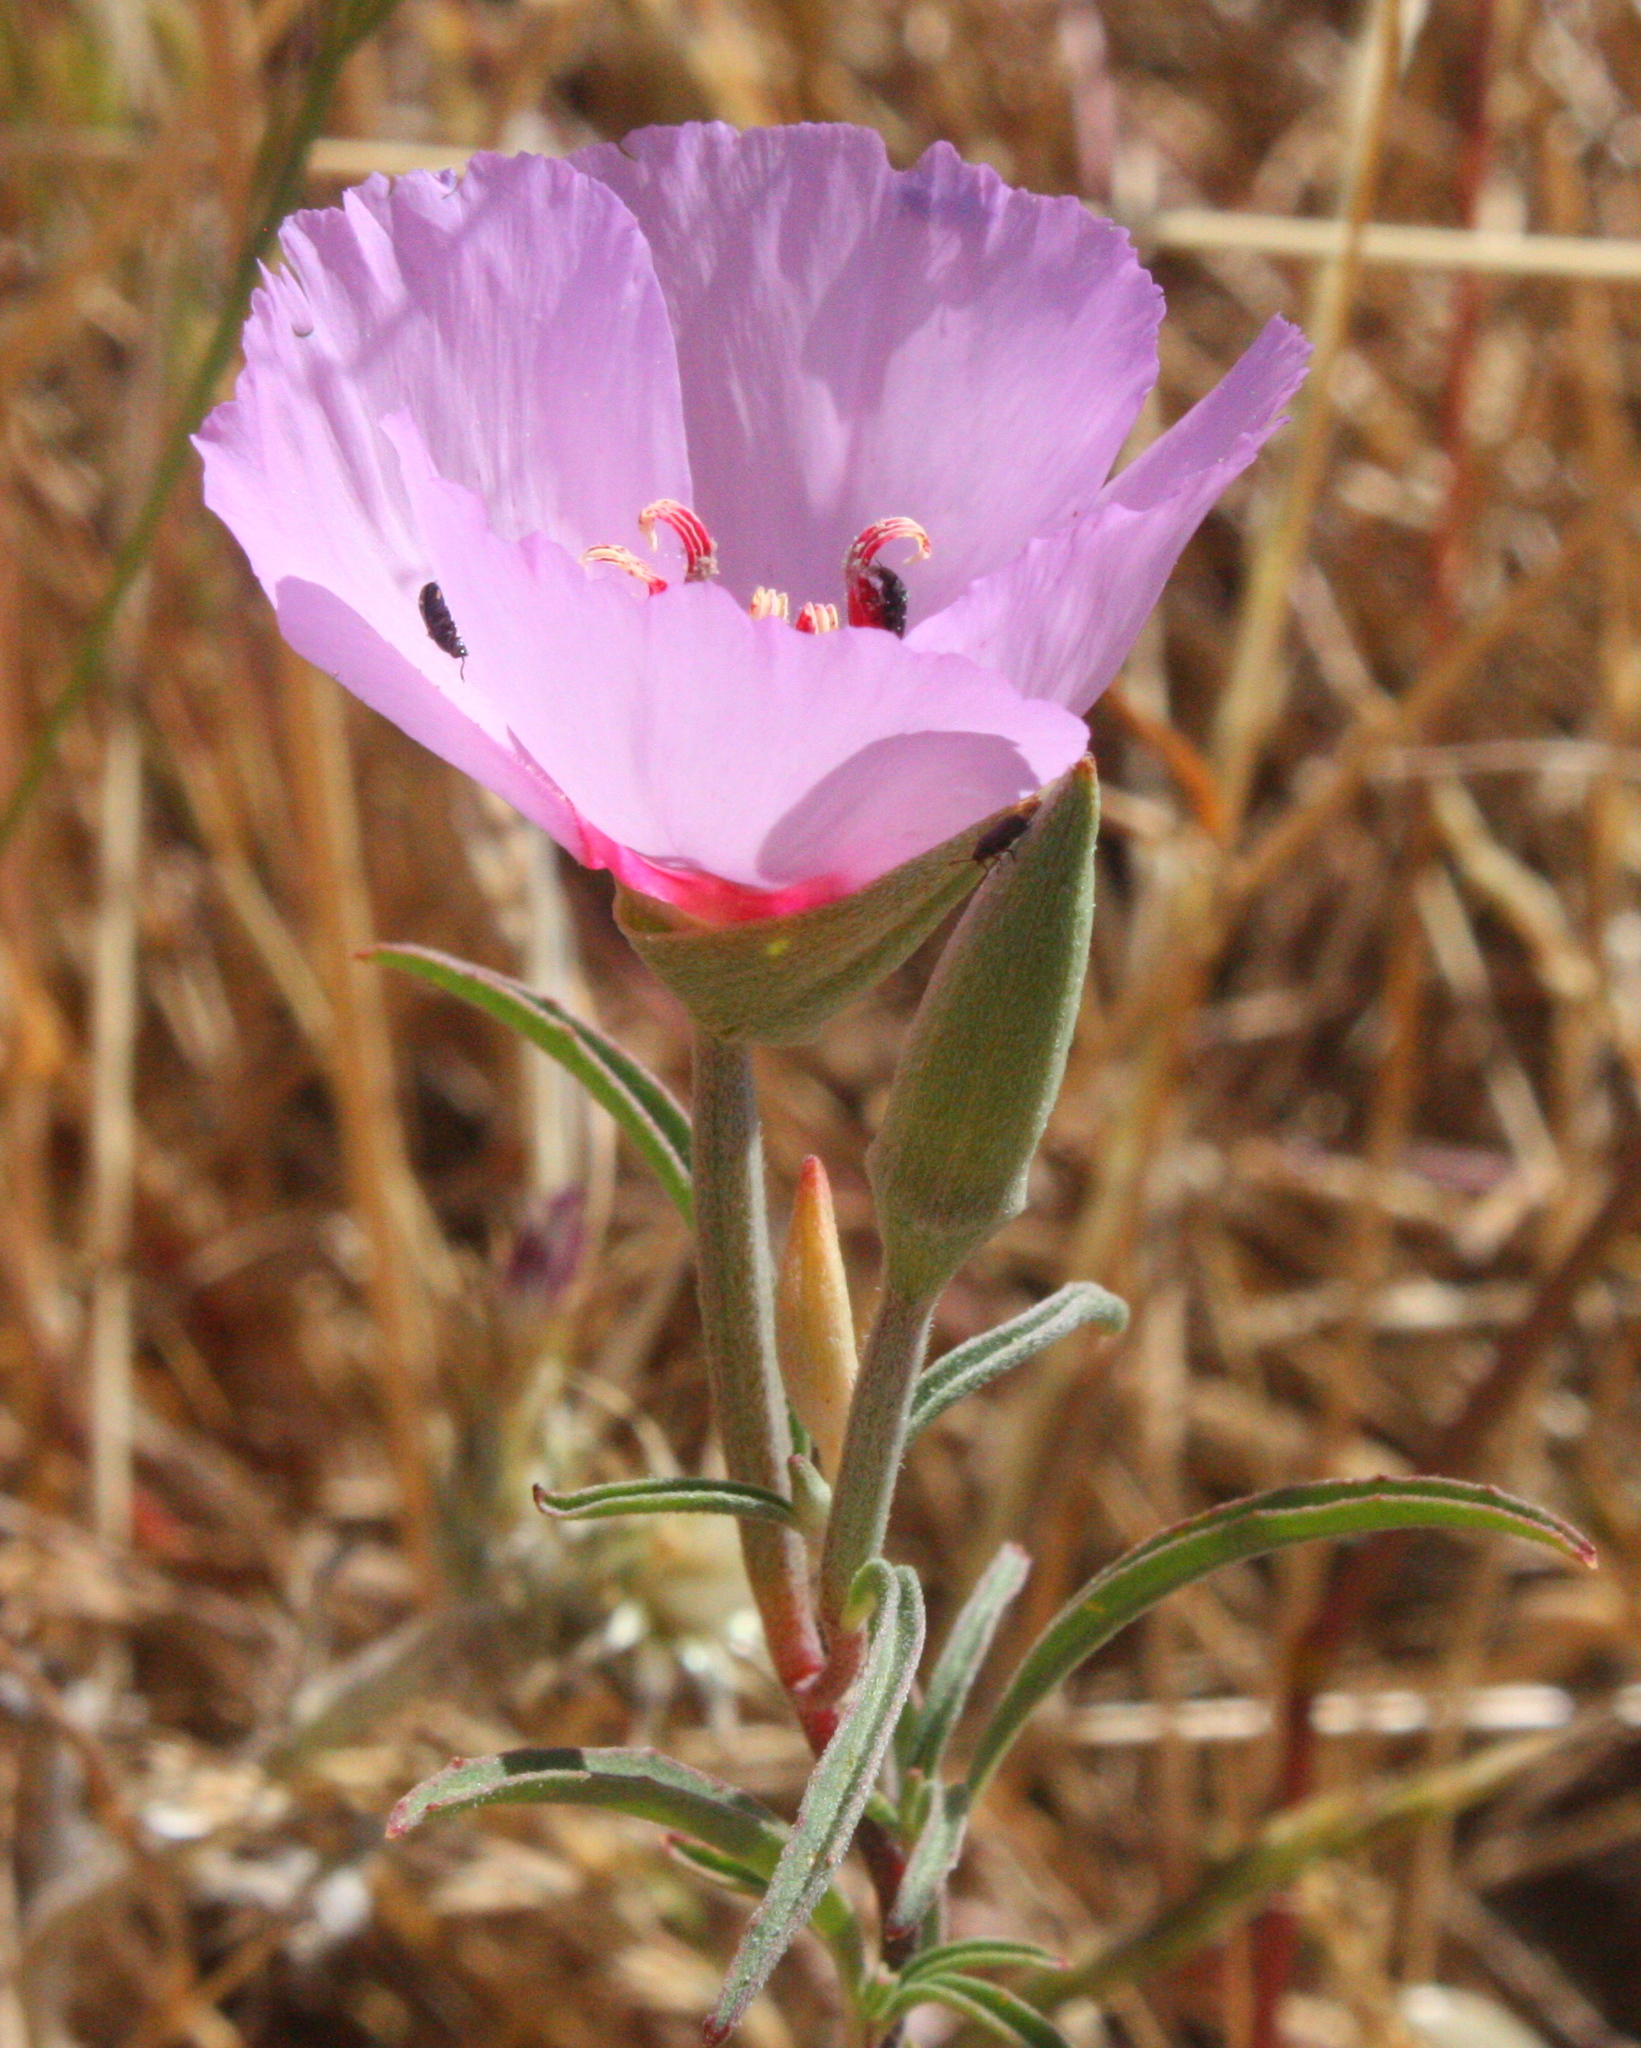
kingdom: Plantae
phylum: Tracheophyta
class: Magnoliopsida
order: Myrtales
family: Onagraceae
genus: Clarkia
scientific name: Clarkia rubicunda
